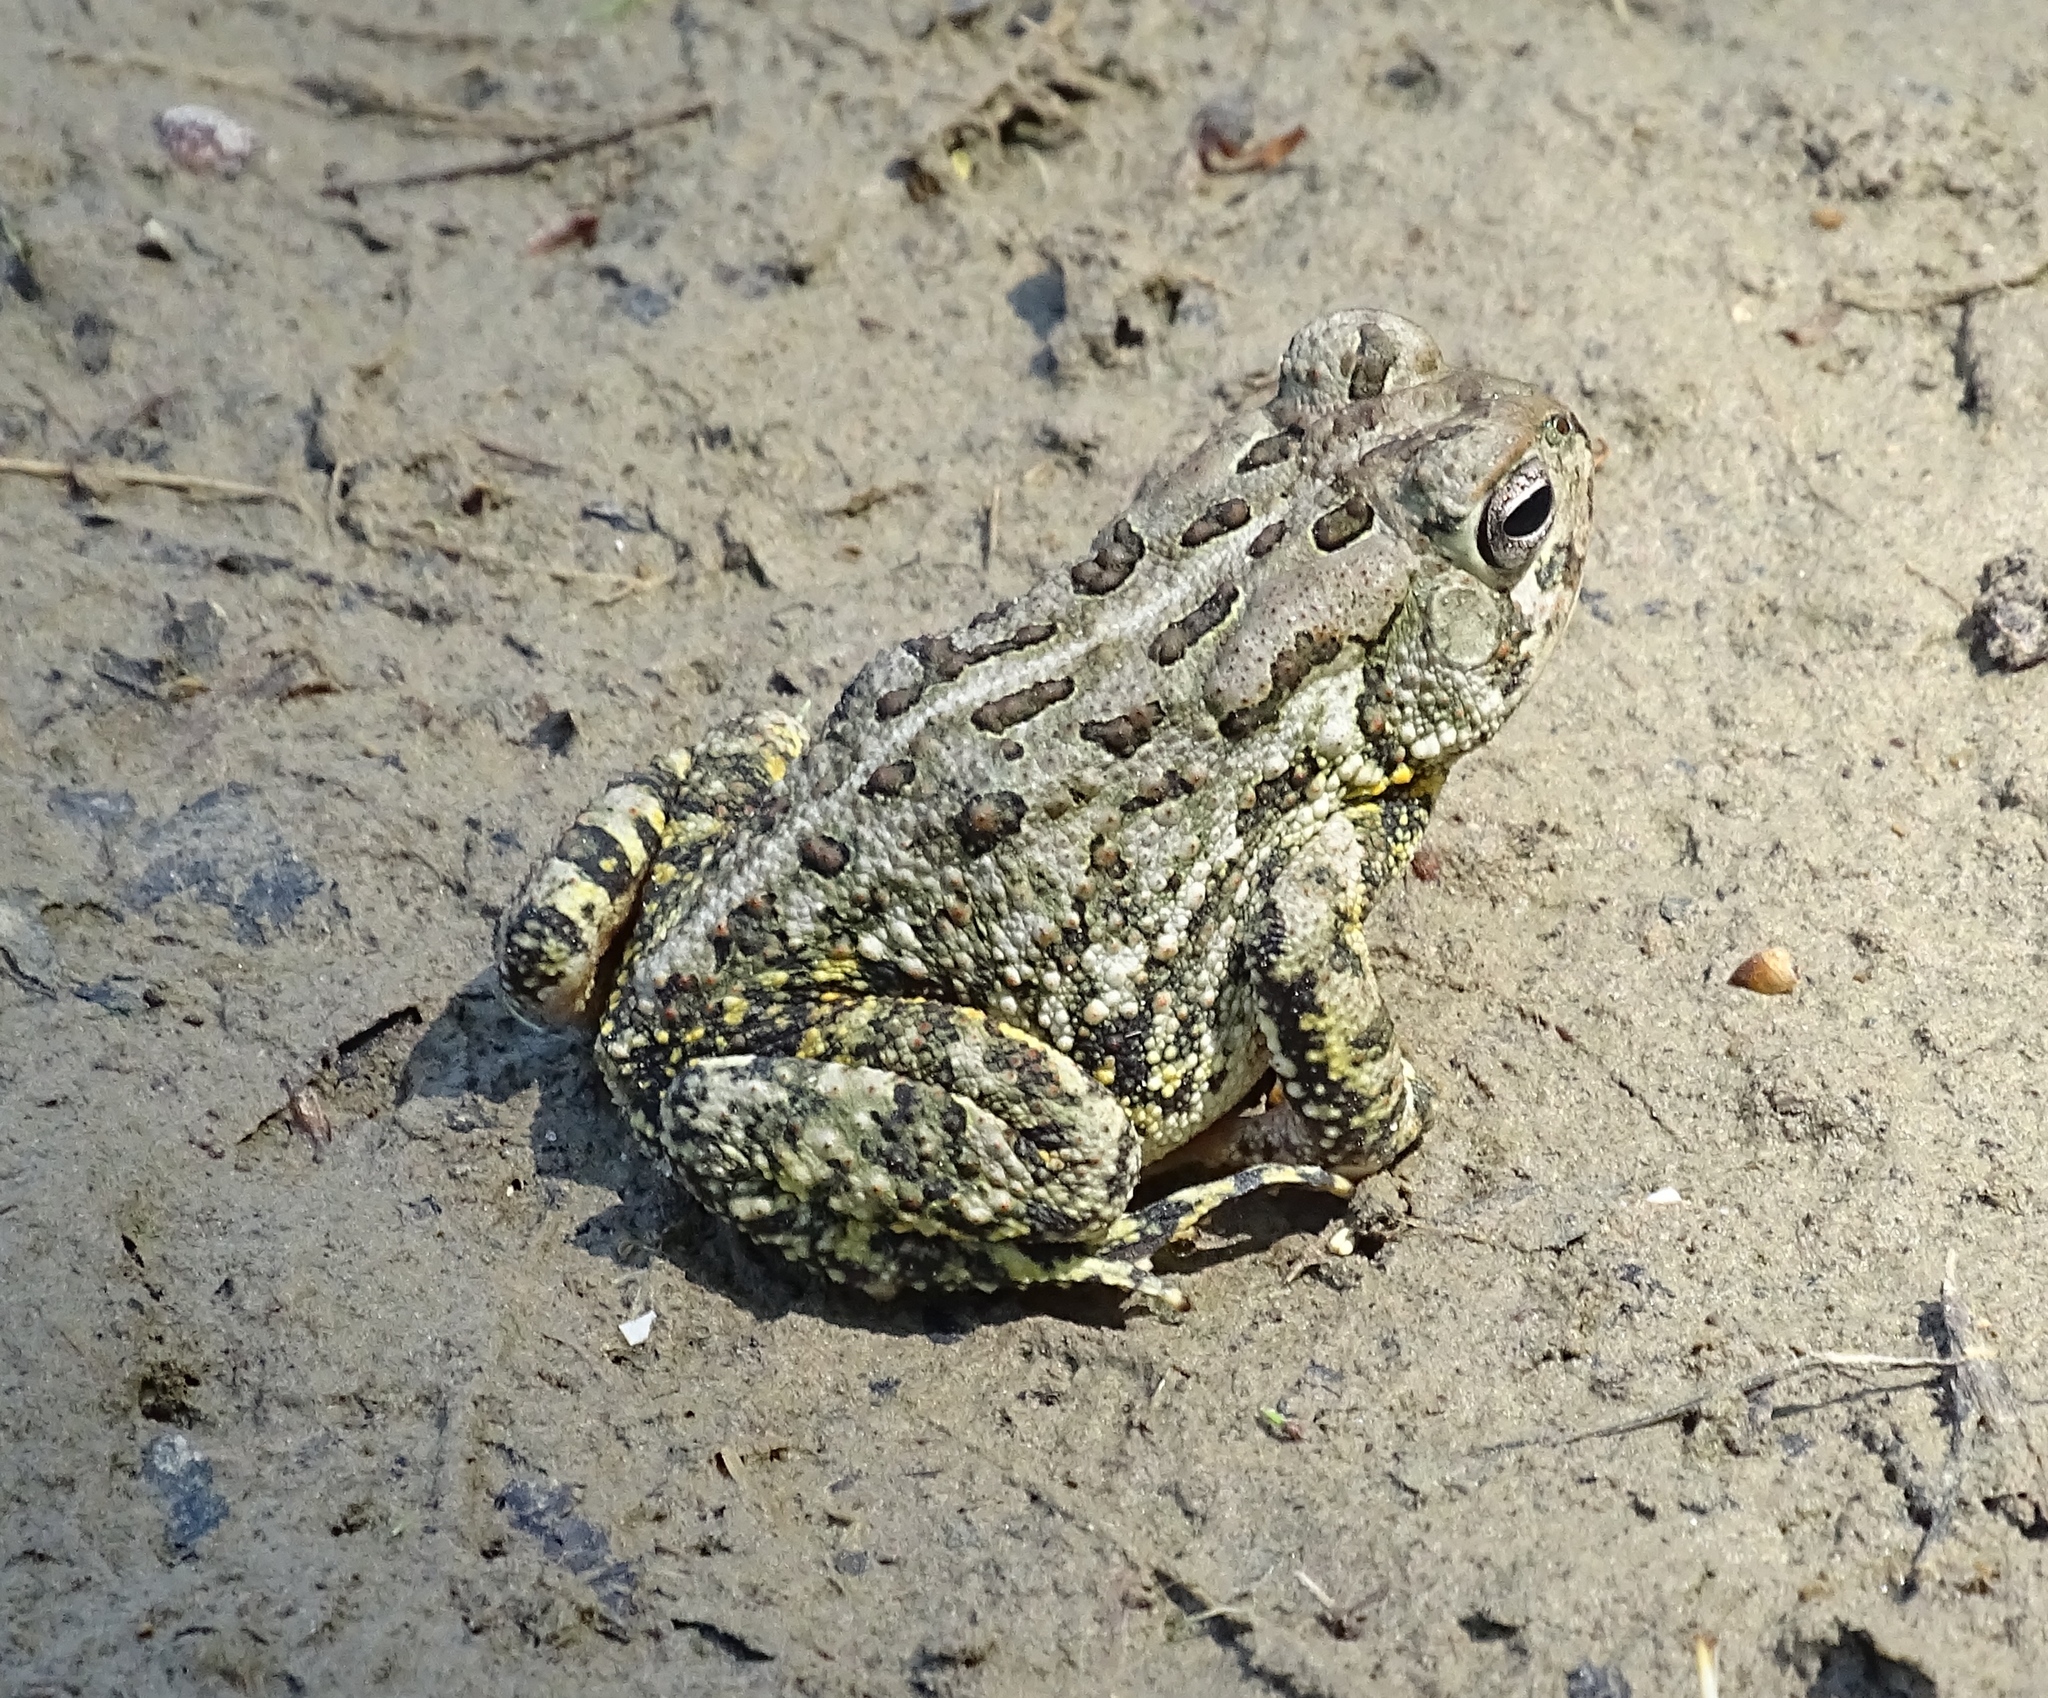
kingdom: Animalia
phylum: Chordata
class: Amphibia
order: Anura
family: Bufonidae
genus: Anaxyrus
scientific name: Anaxyrus fowleri
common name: Fowler's toad
